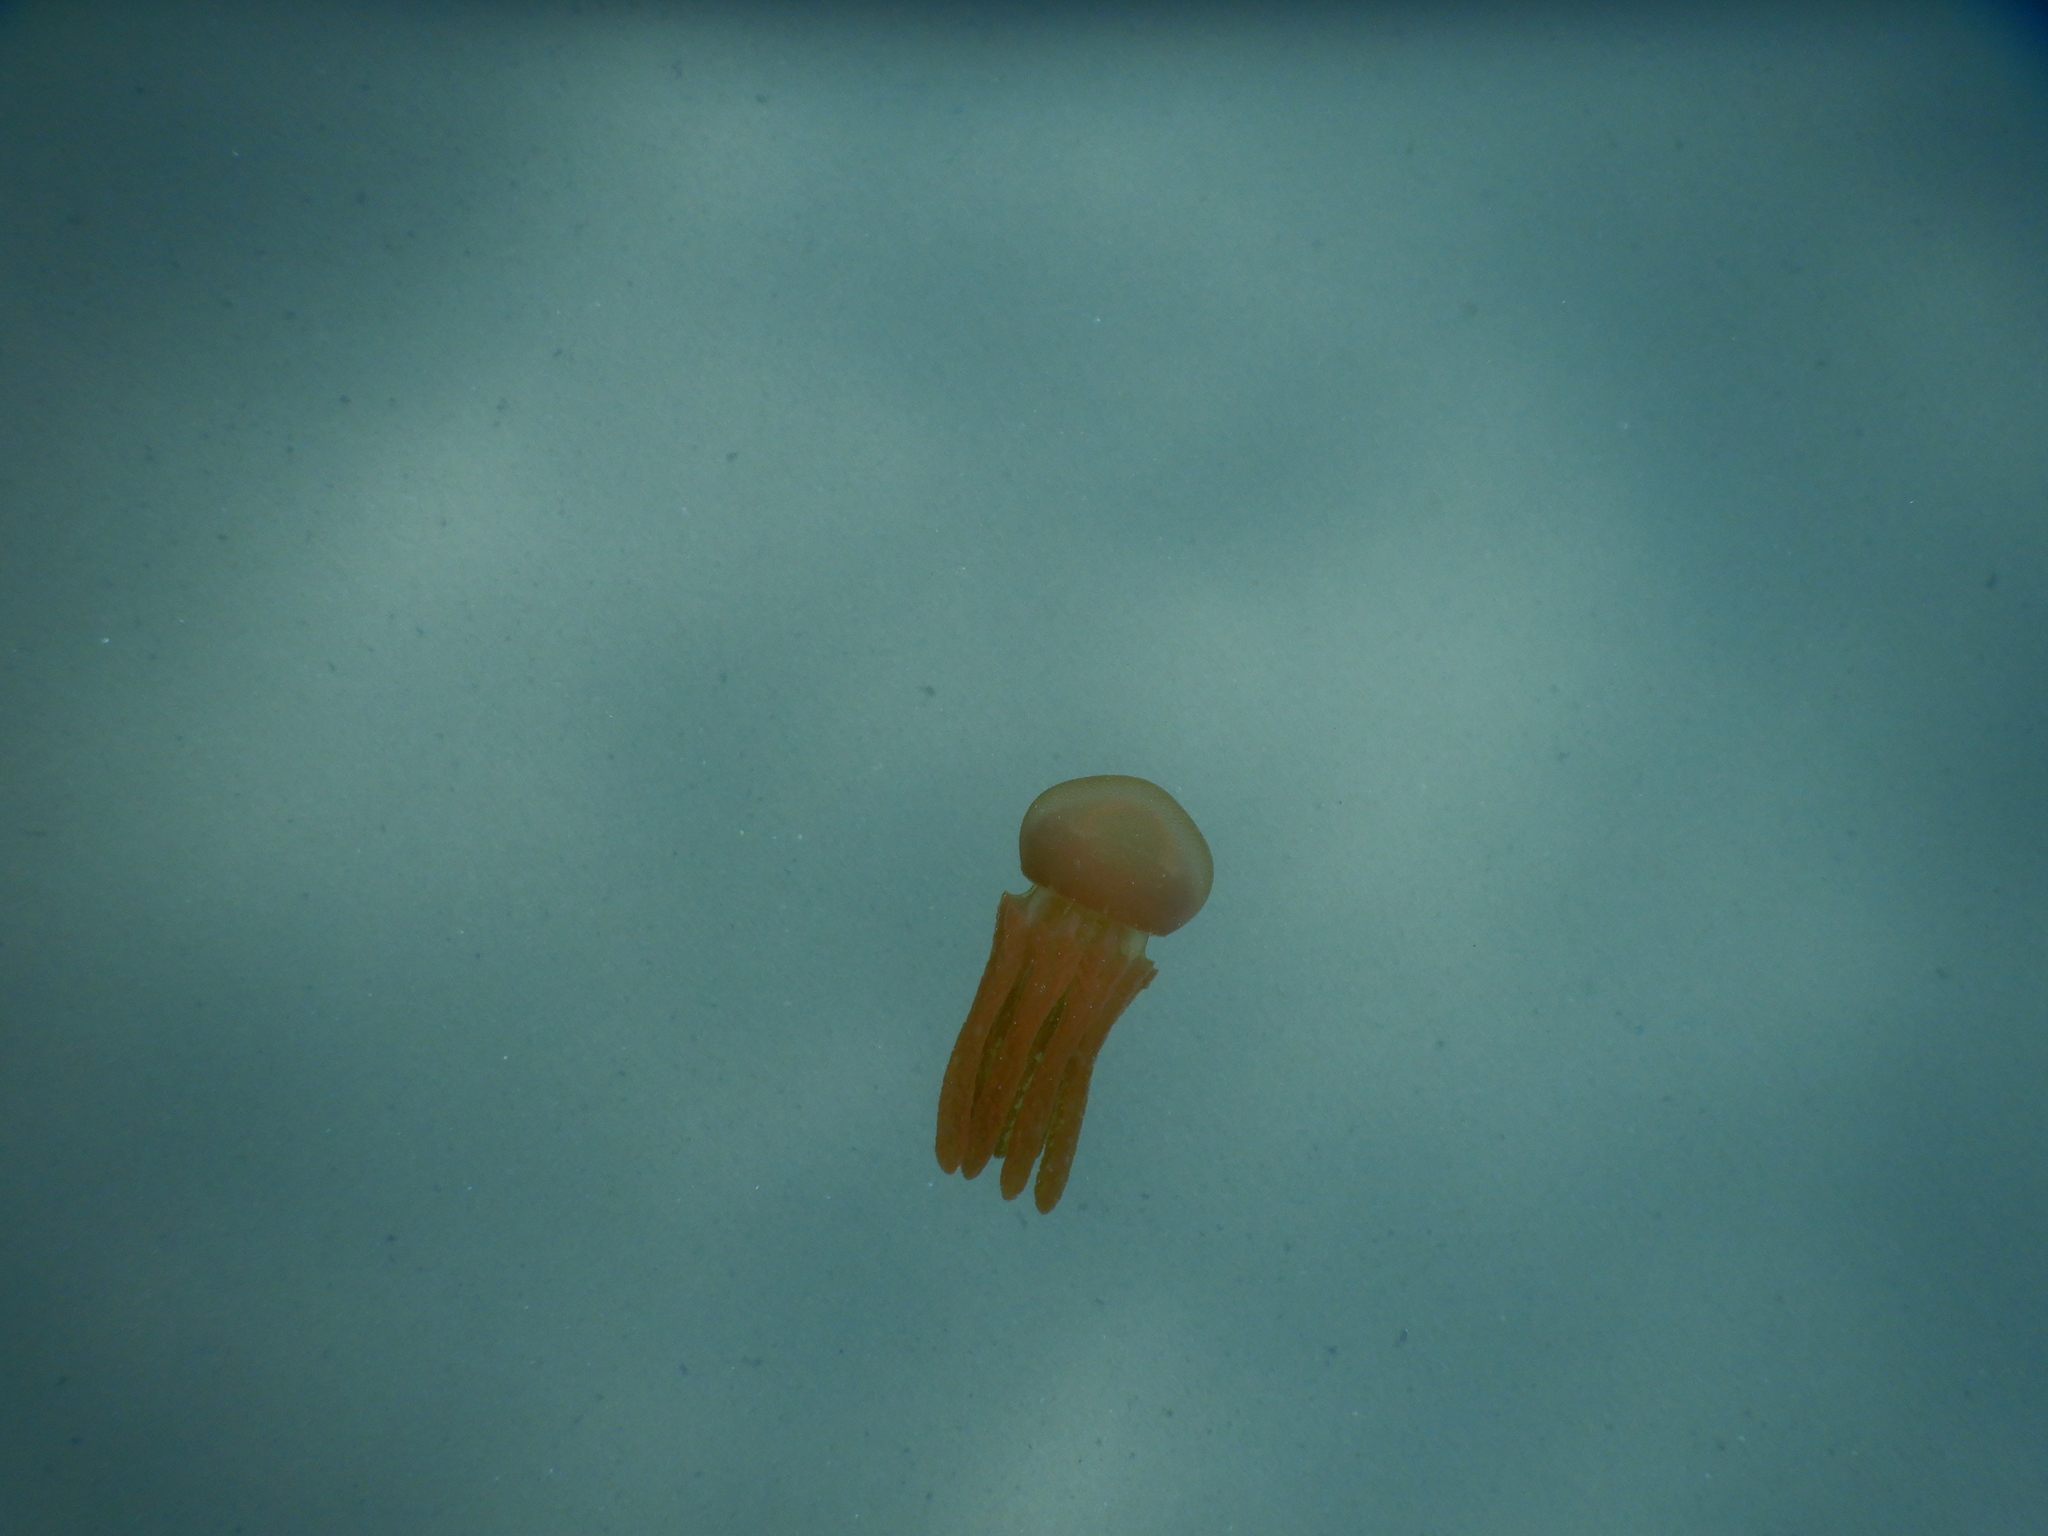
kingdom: Animalia
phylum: Cnidaria
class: Scyphozoa
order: Rhizostomeae
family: Leptobrachidae
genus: Thysanostoma
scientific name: Thysanostoma thysanura
